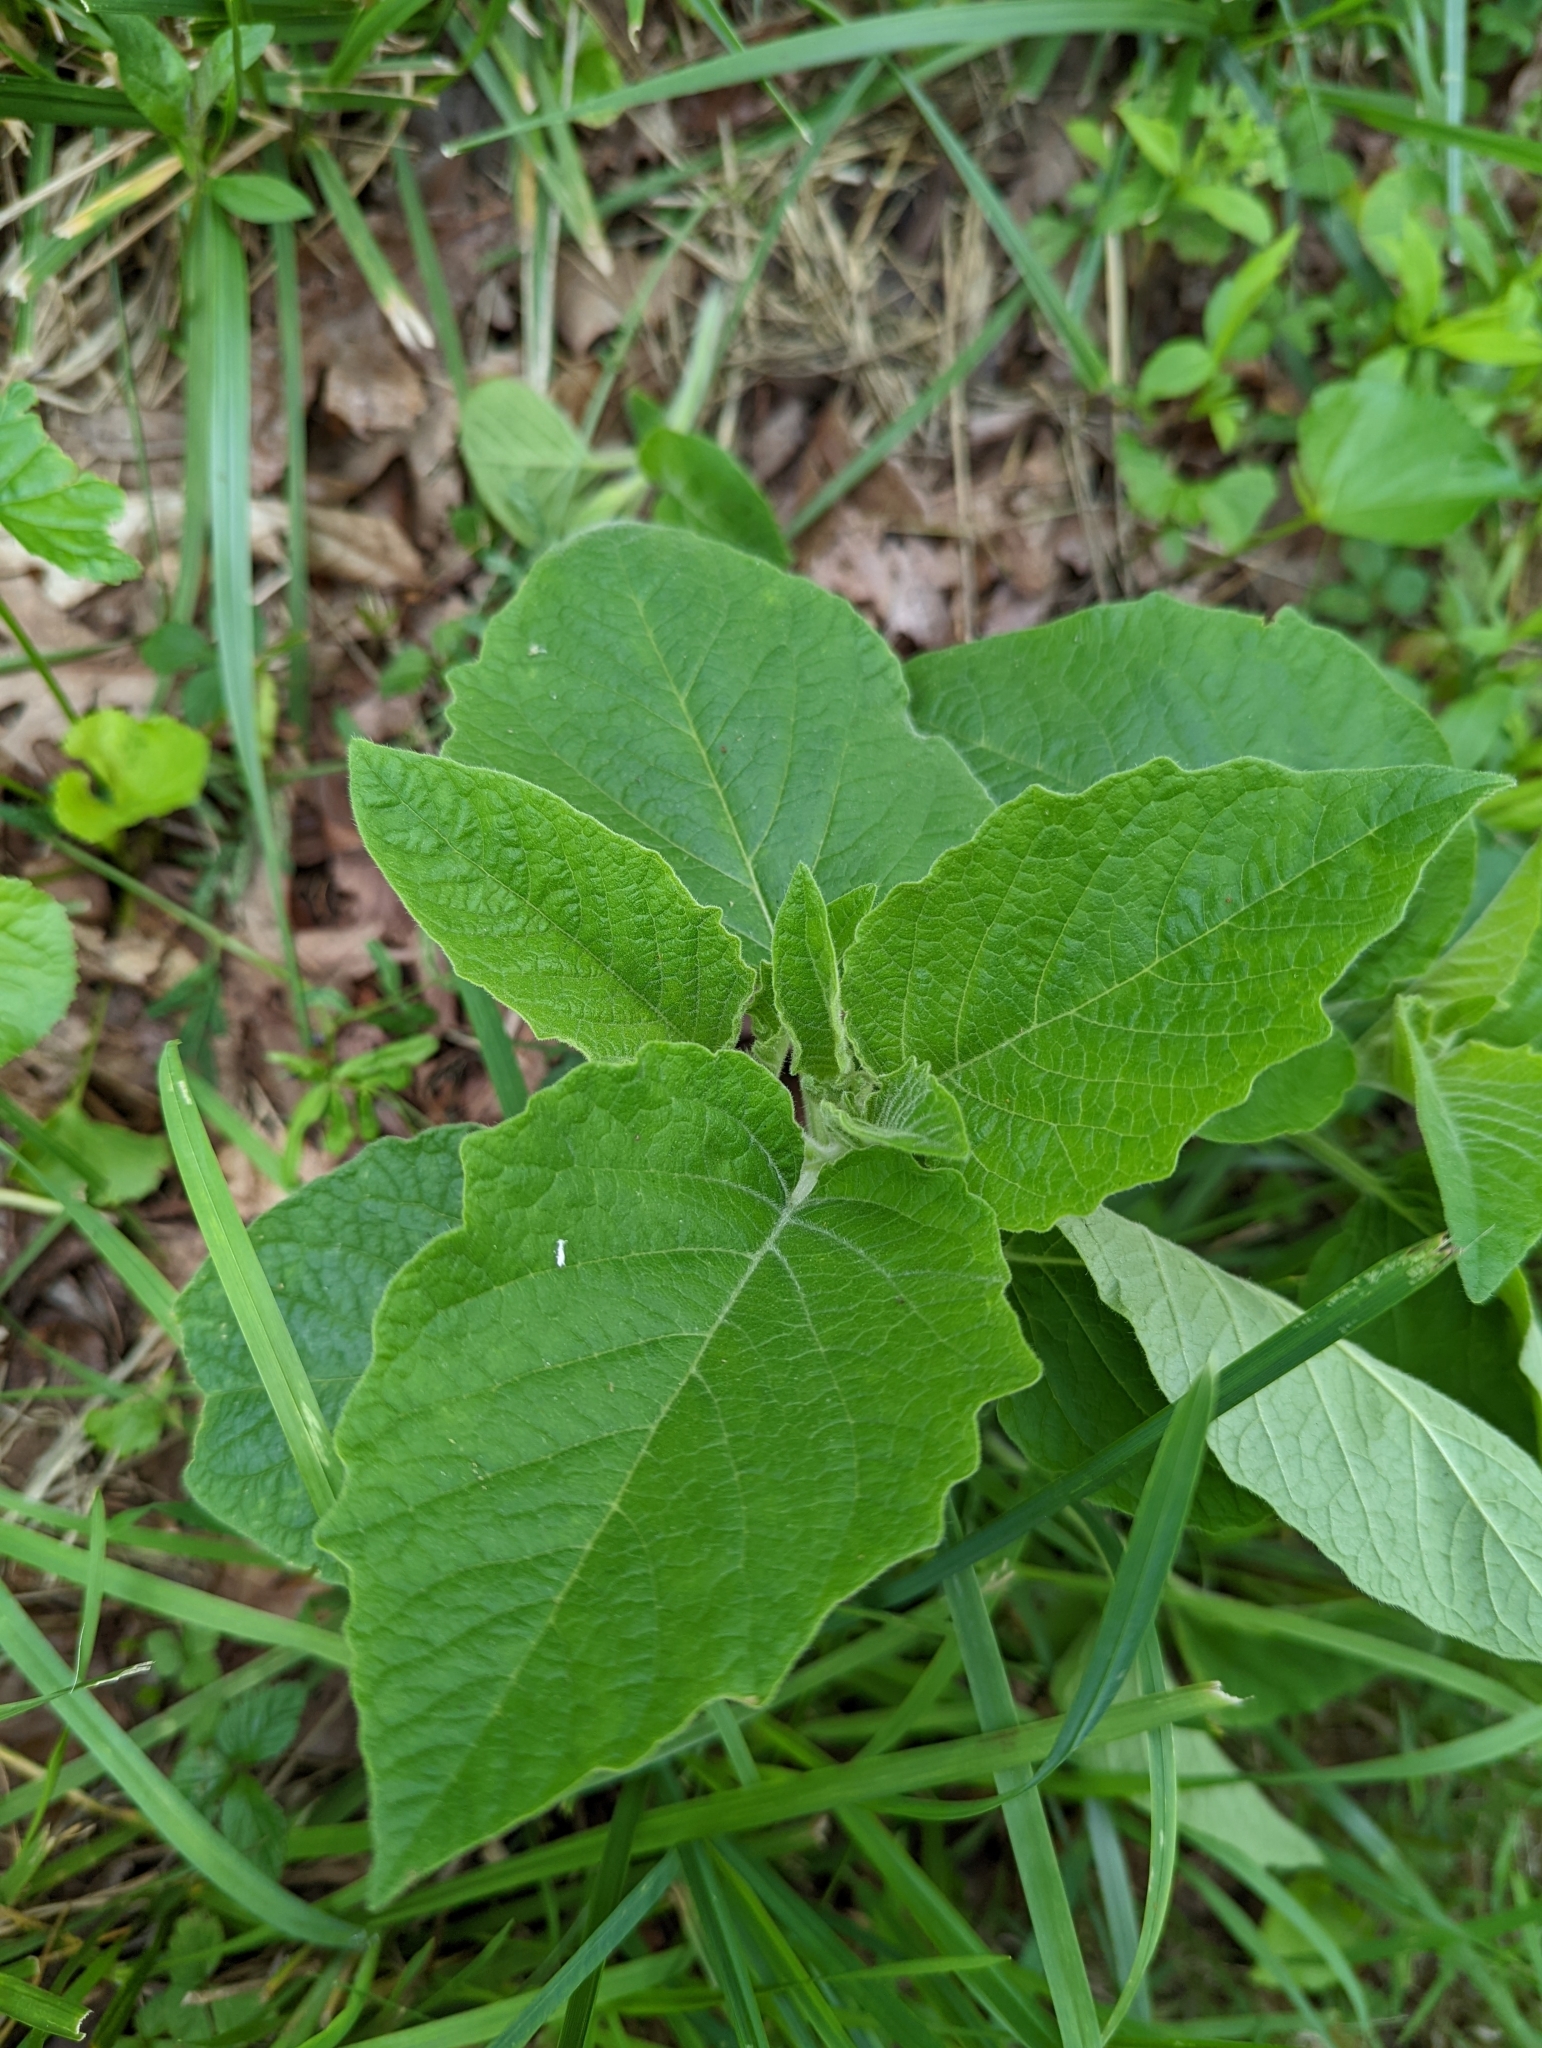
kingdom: Plantae
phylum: Tracheophyta
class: Magnoliopsida
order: Solanales
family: Solanaceae
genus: Physalis
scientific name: Physalis heterophylla
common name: Clammy ground-cherry
